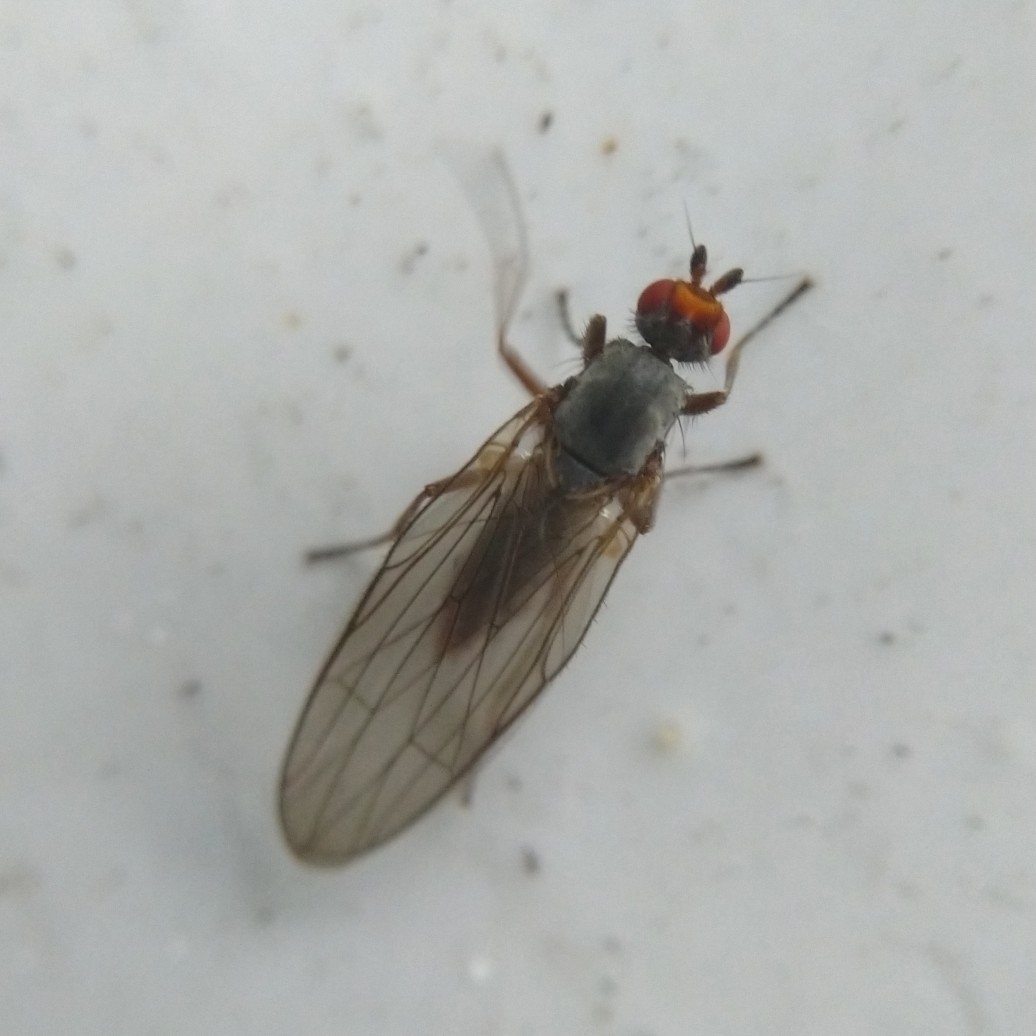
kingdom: Animalia
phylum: Arthropoda
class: Insecta
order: Diptera
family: Heleomyzidae
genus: Orbellia
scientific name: Orbellia nivicola
